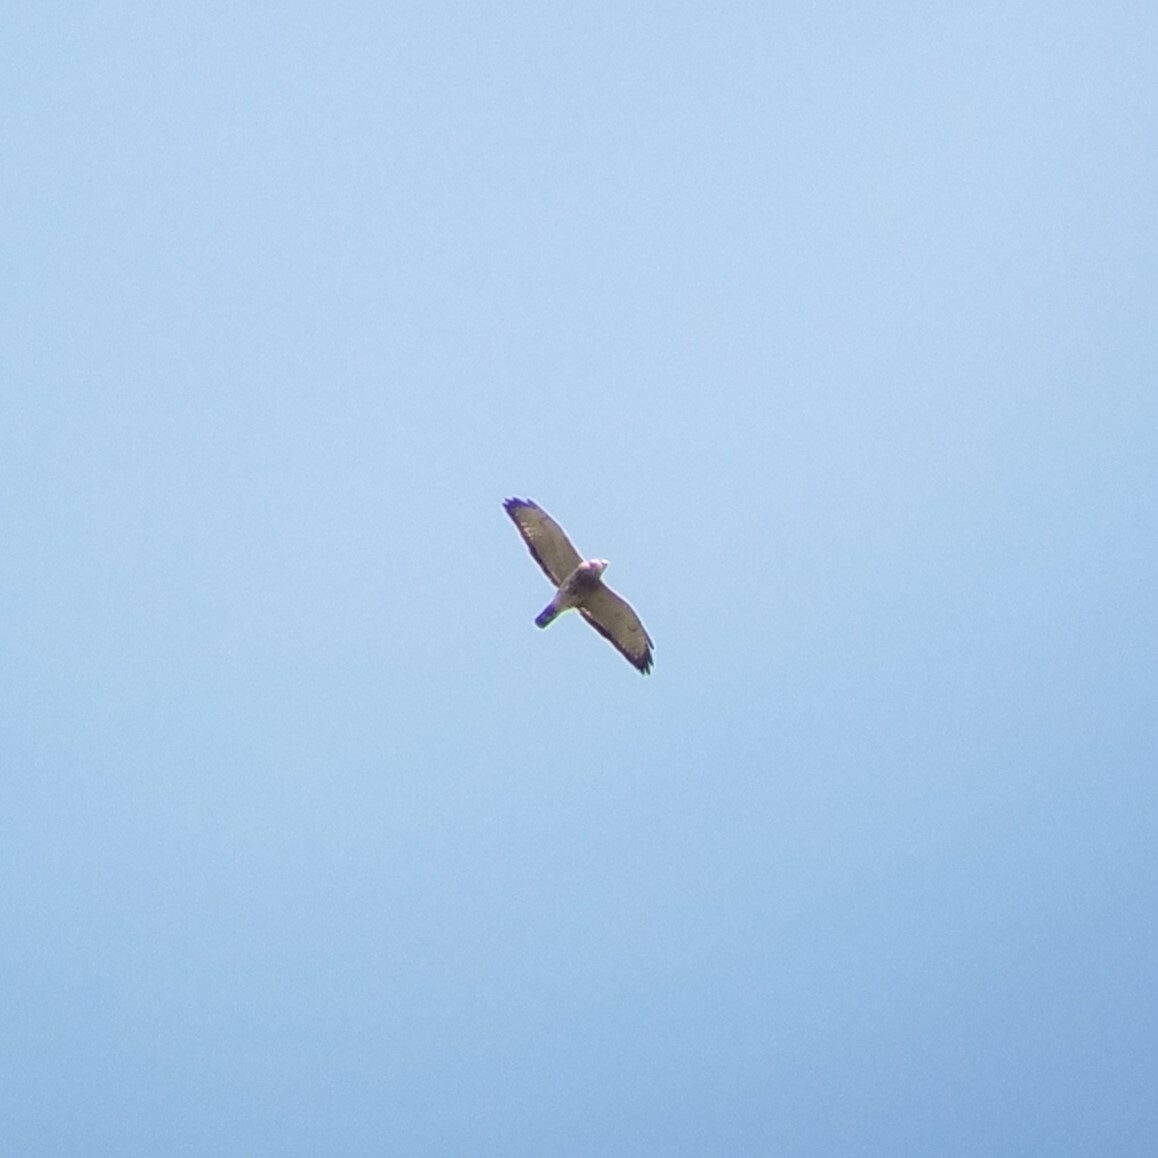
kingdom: Animalia
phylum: Chordata
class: Aves
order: Accipitriformes
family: Accipitridae
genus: Buteo
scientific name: Buteo platypterus
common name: Broad-winged hawk
